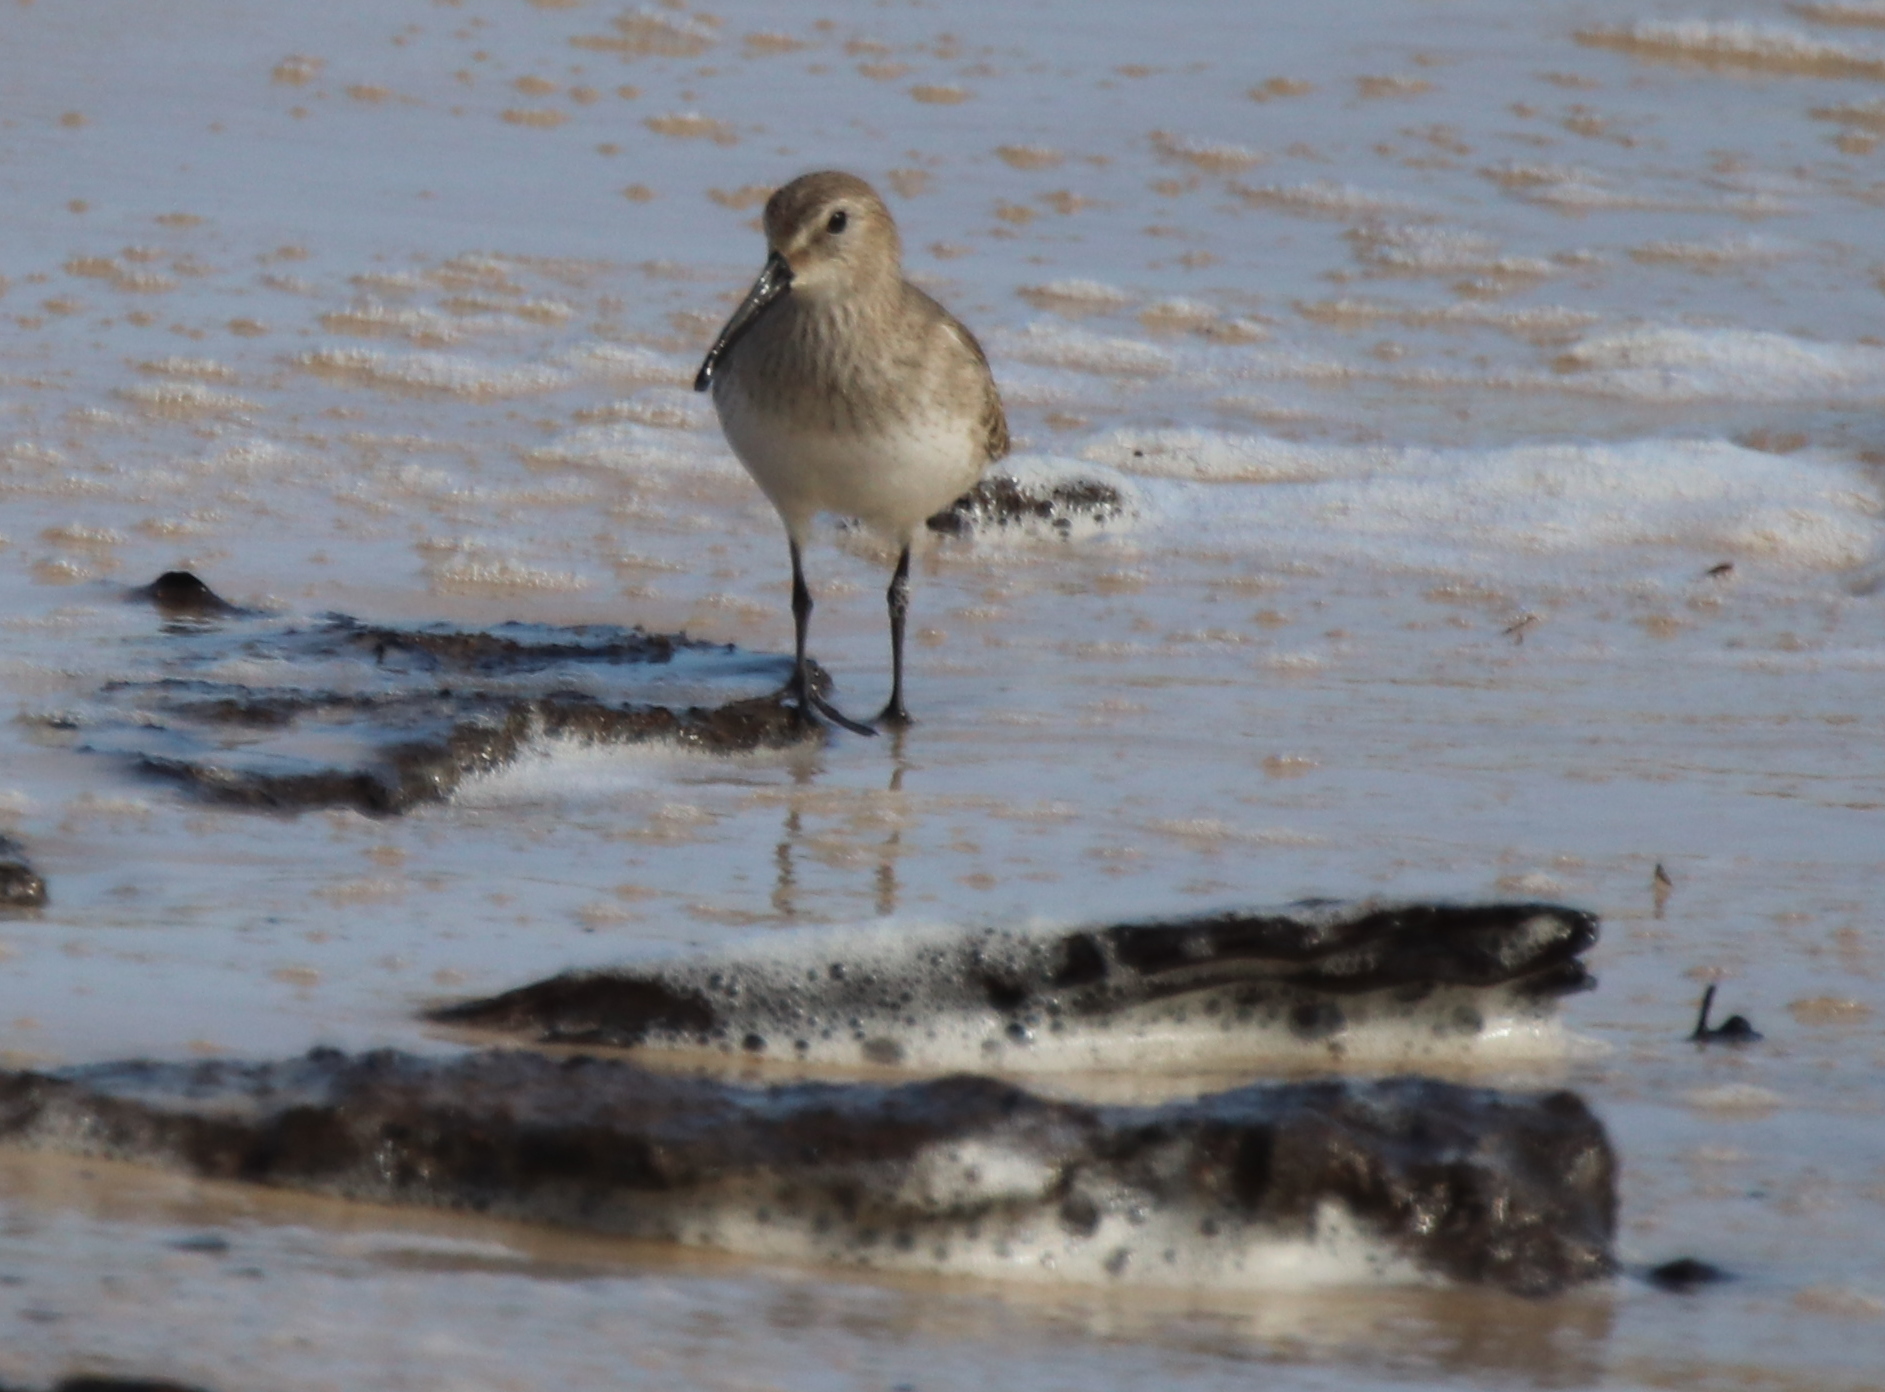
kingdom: Animalia
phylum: Chordata
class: Aves
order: Charadriiformes
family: Scolopacidae
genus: Calidris
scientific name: Calidris alpina
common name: Dunlin
